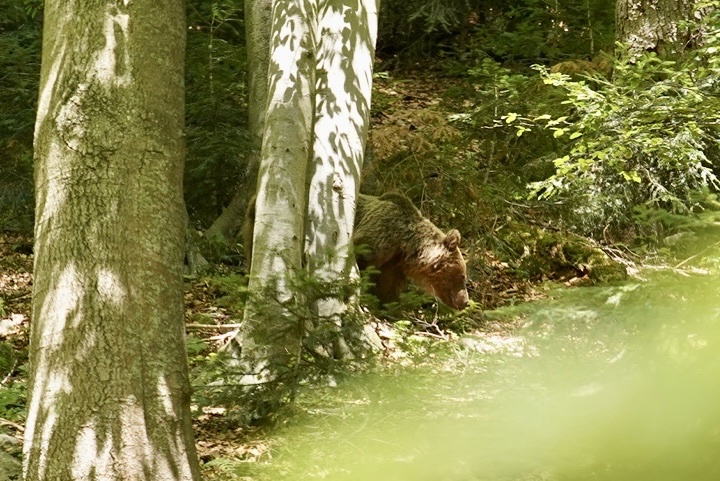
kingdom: Animalia
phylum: Chordata
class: Mammalia
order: Carnivora
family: Ursidae
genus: Ursus
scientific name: Ursus arctos
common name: Brown bear
